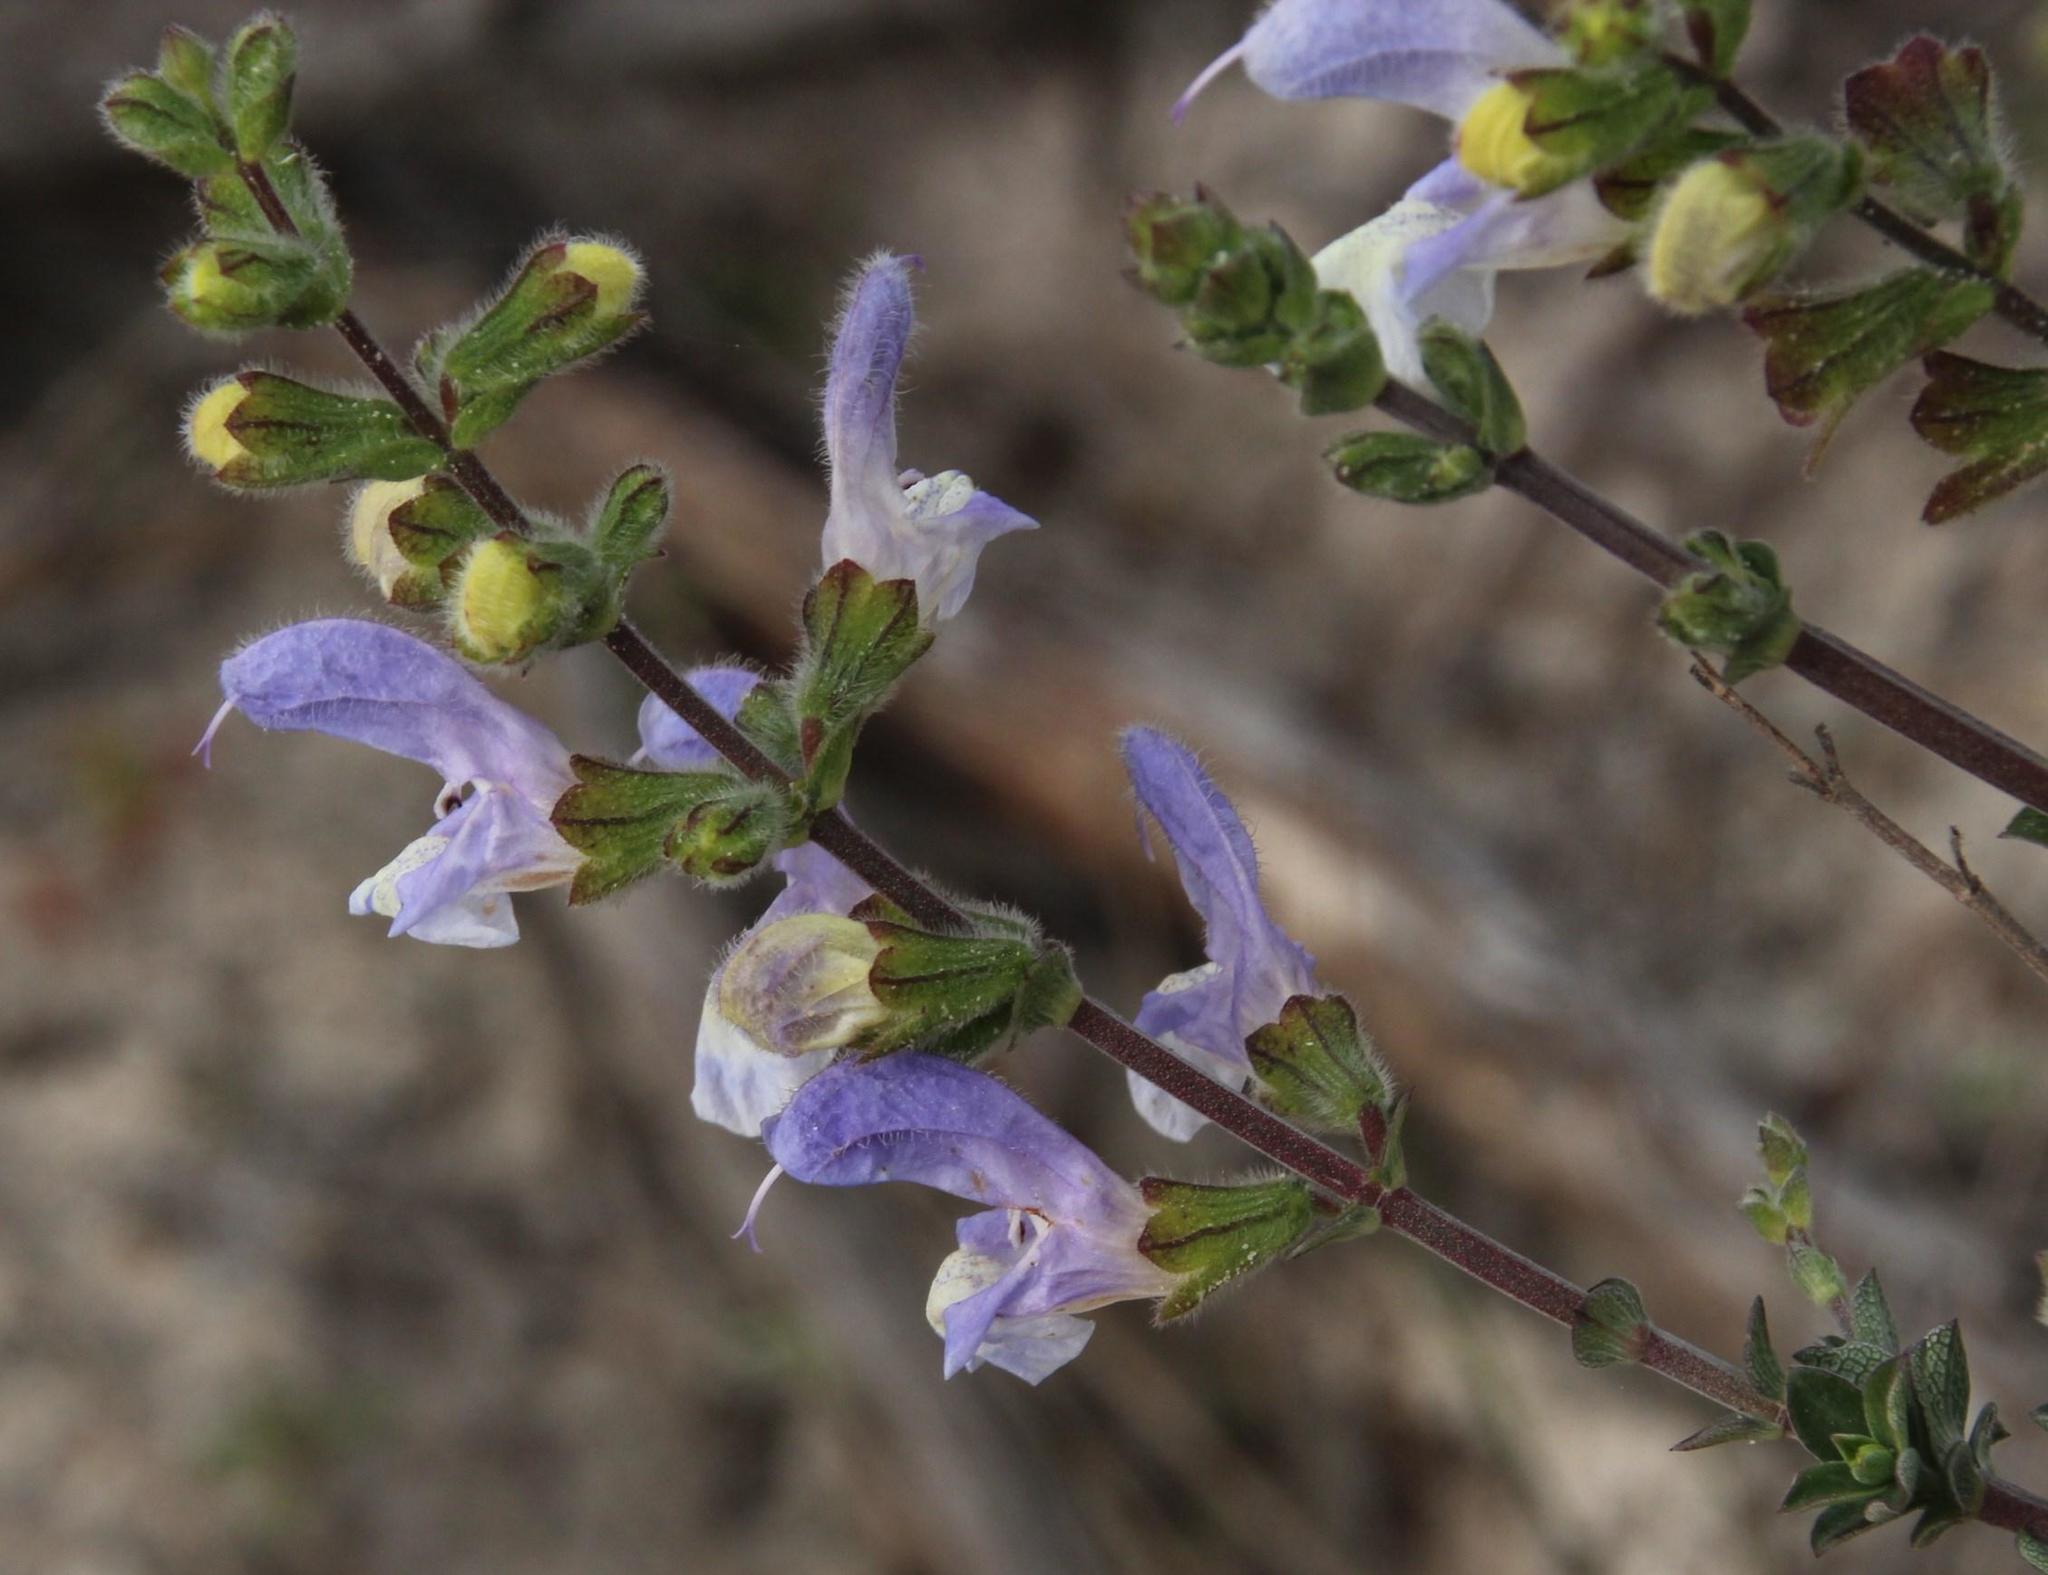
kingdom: Plantae
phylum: Tracheophyta
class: Magnoliopsida
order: Lamiales
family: Lamiaceae
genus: Salvia
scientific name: Salvia africana
